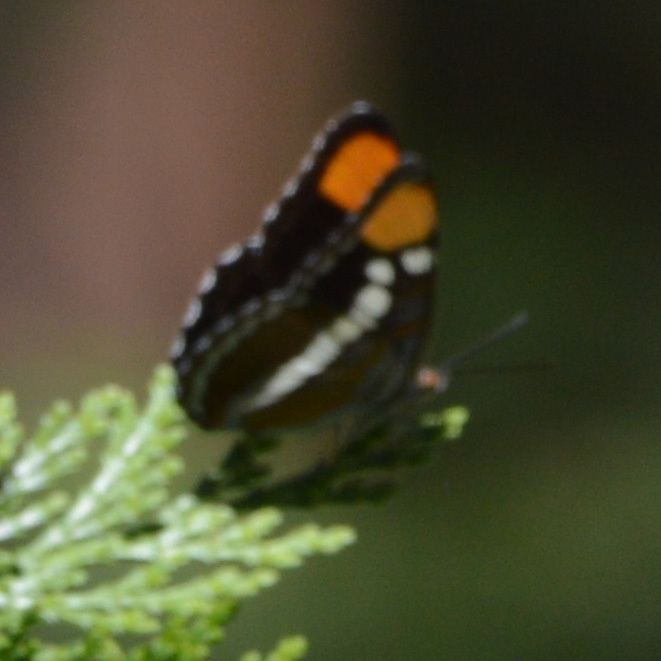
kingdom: Animalia
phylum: Arthropoda
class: Insecta
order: Lepidoptera
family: Nymphalidae
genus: Limenitis
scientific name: Limenitis bredowii
